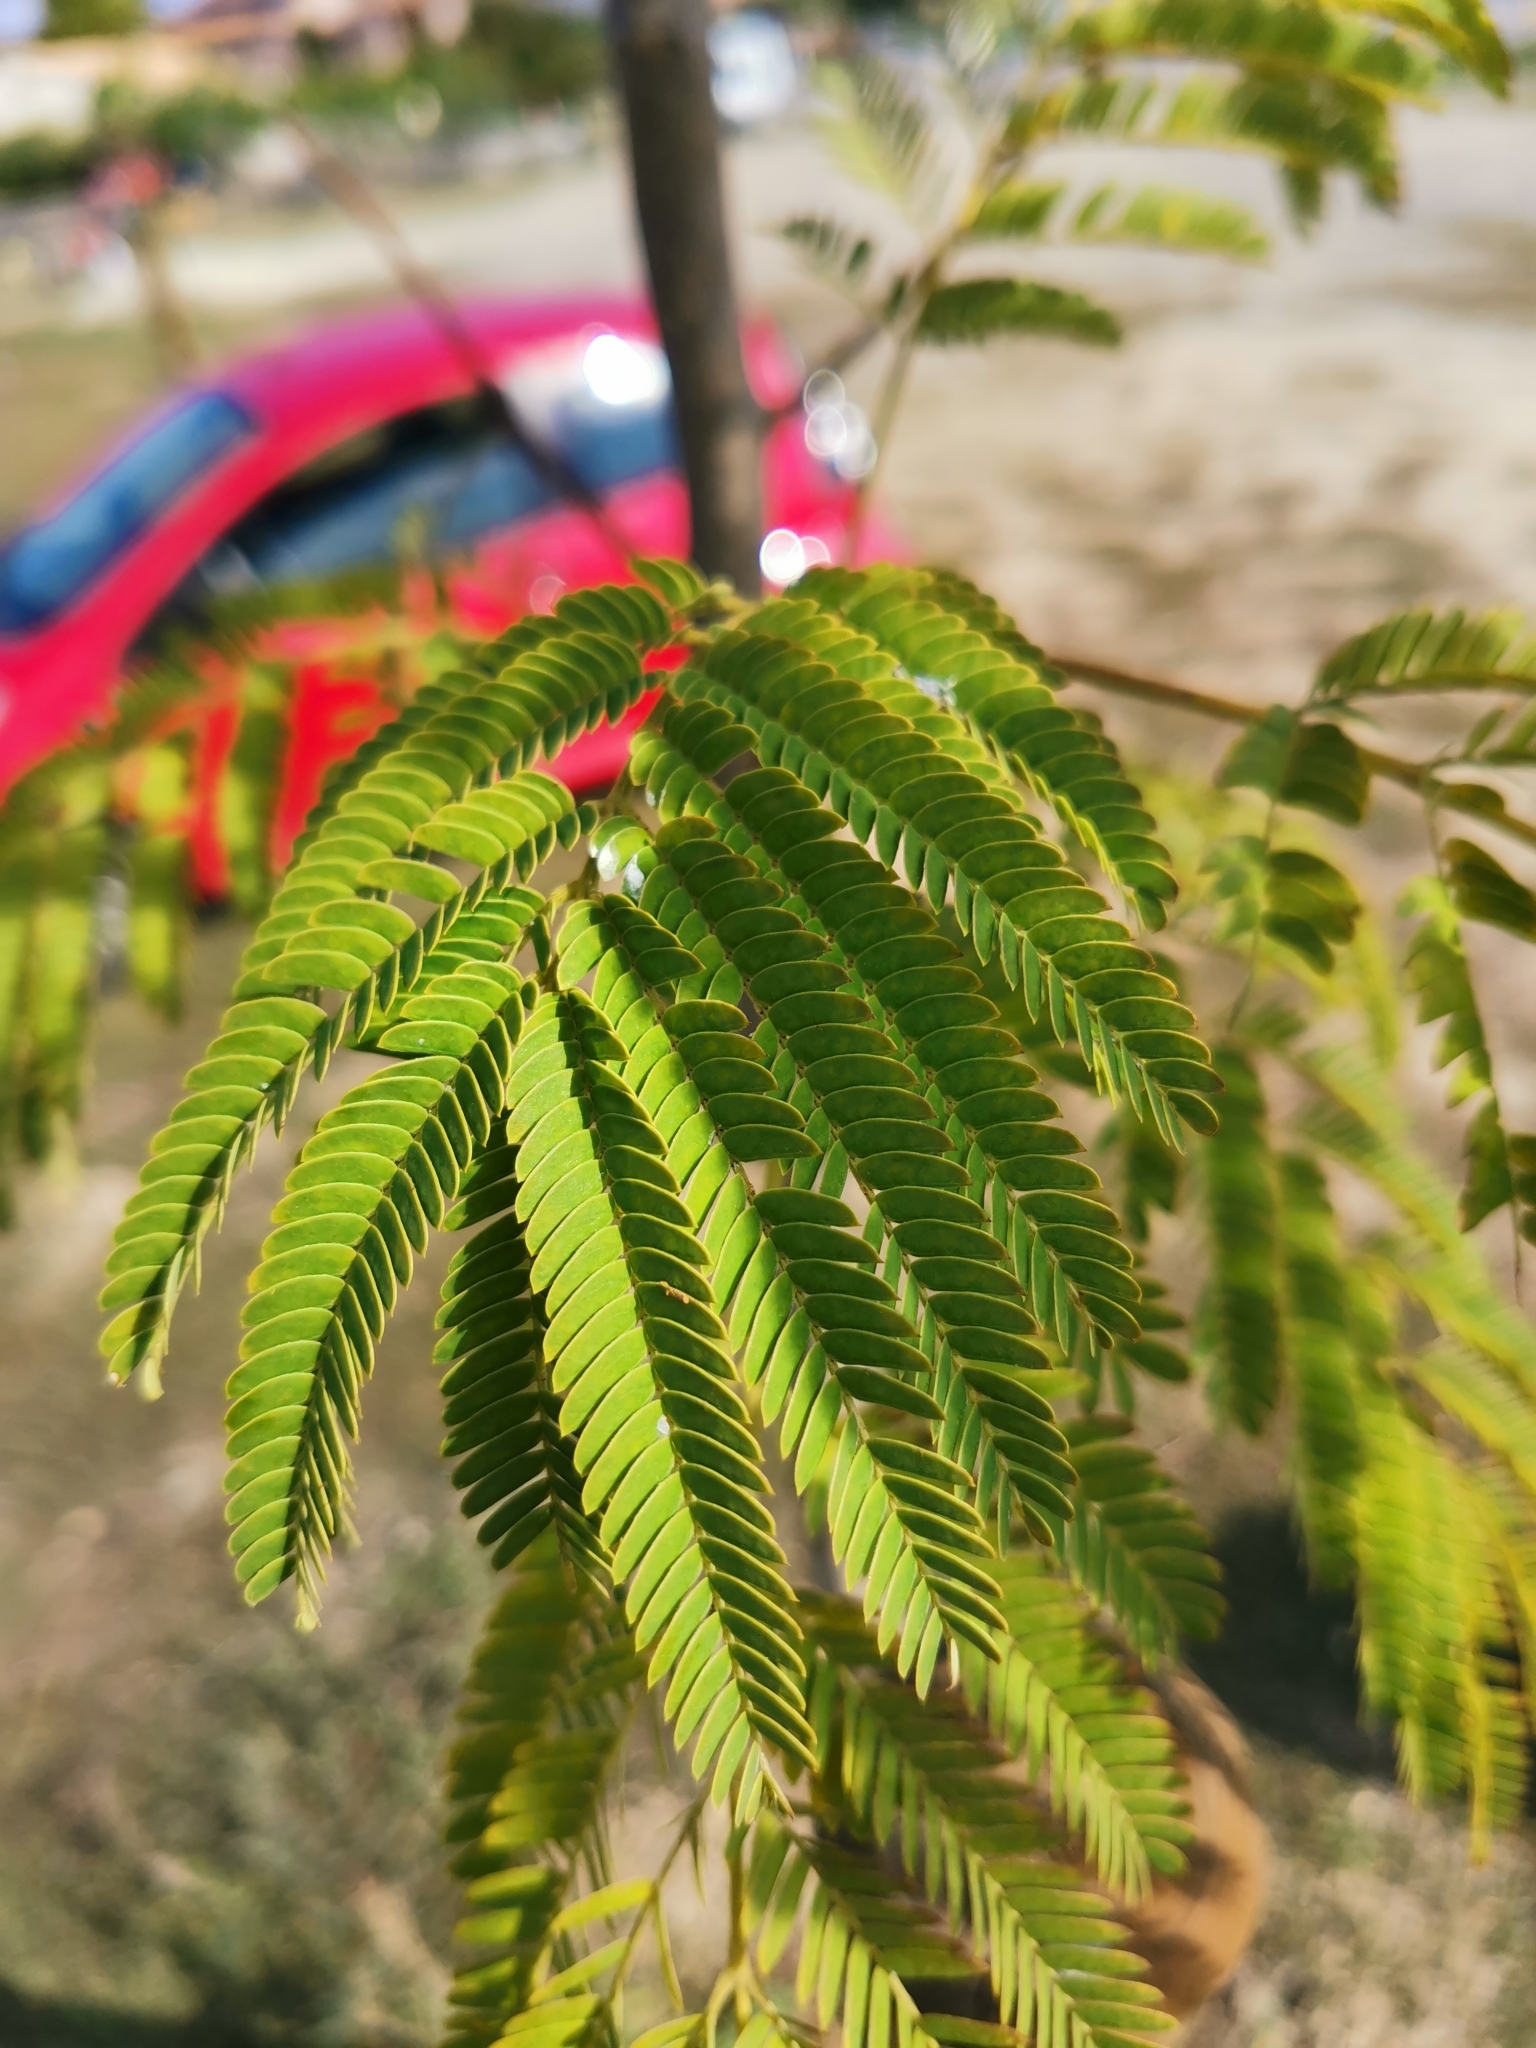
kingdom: Plantae
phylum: Tracheophyta
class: Magnoliopsida
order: Fabales
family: Fabaceae
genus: Albizia
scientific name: Albizia julibrissin
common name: Silktree
